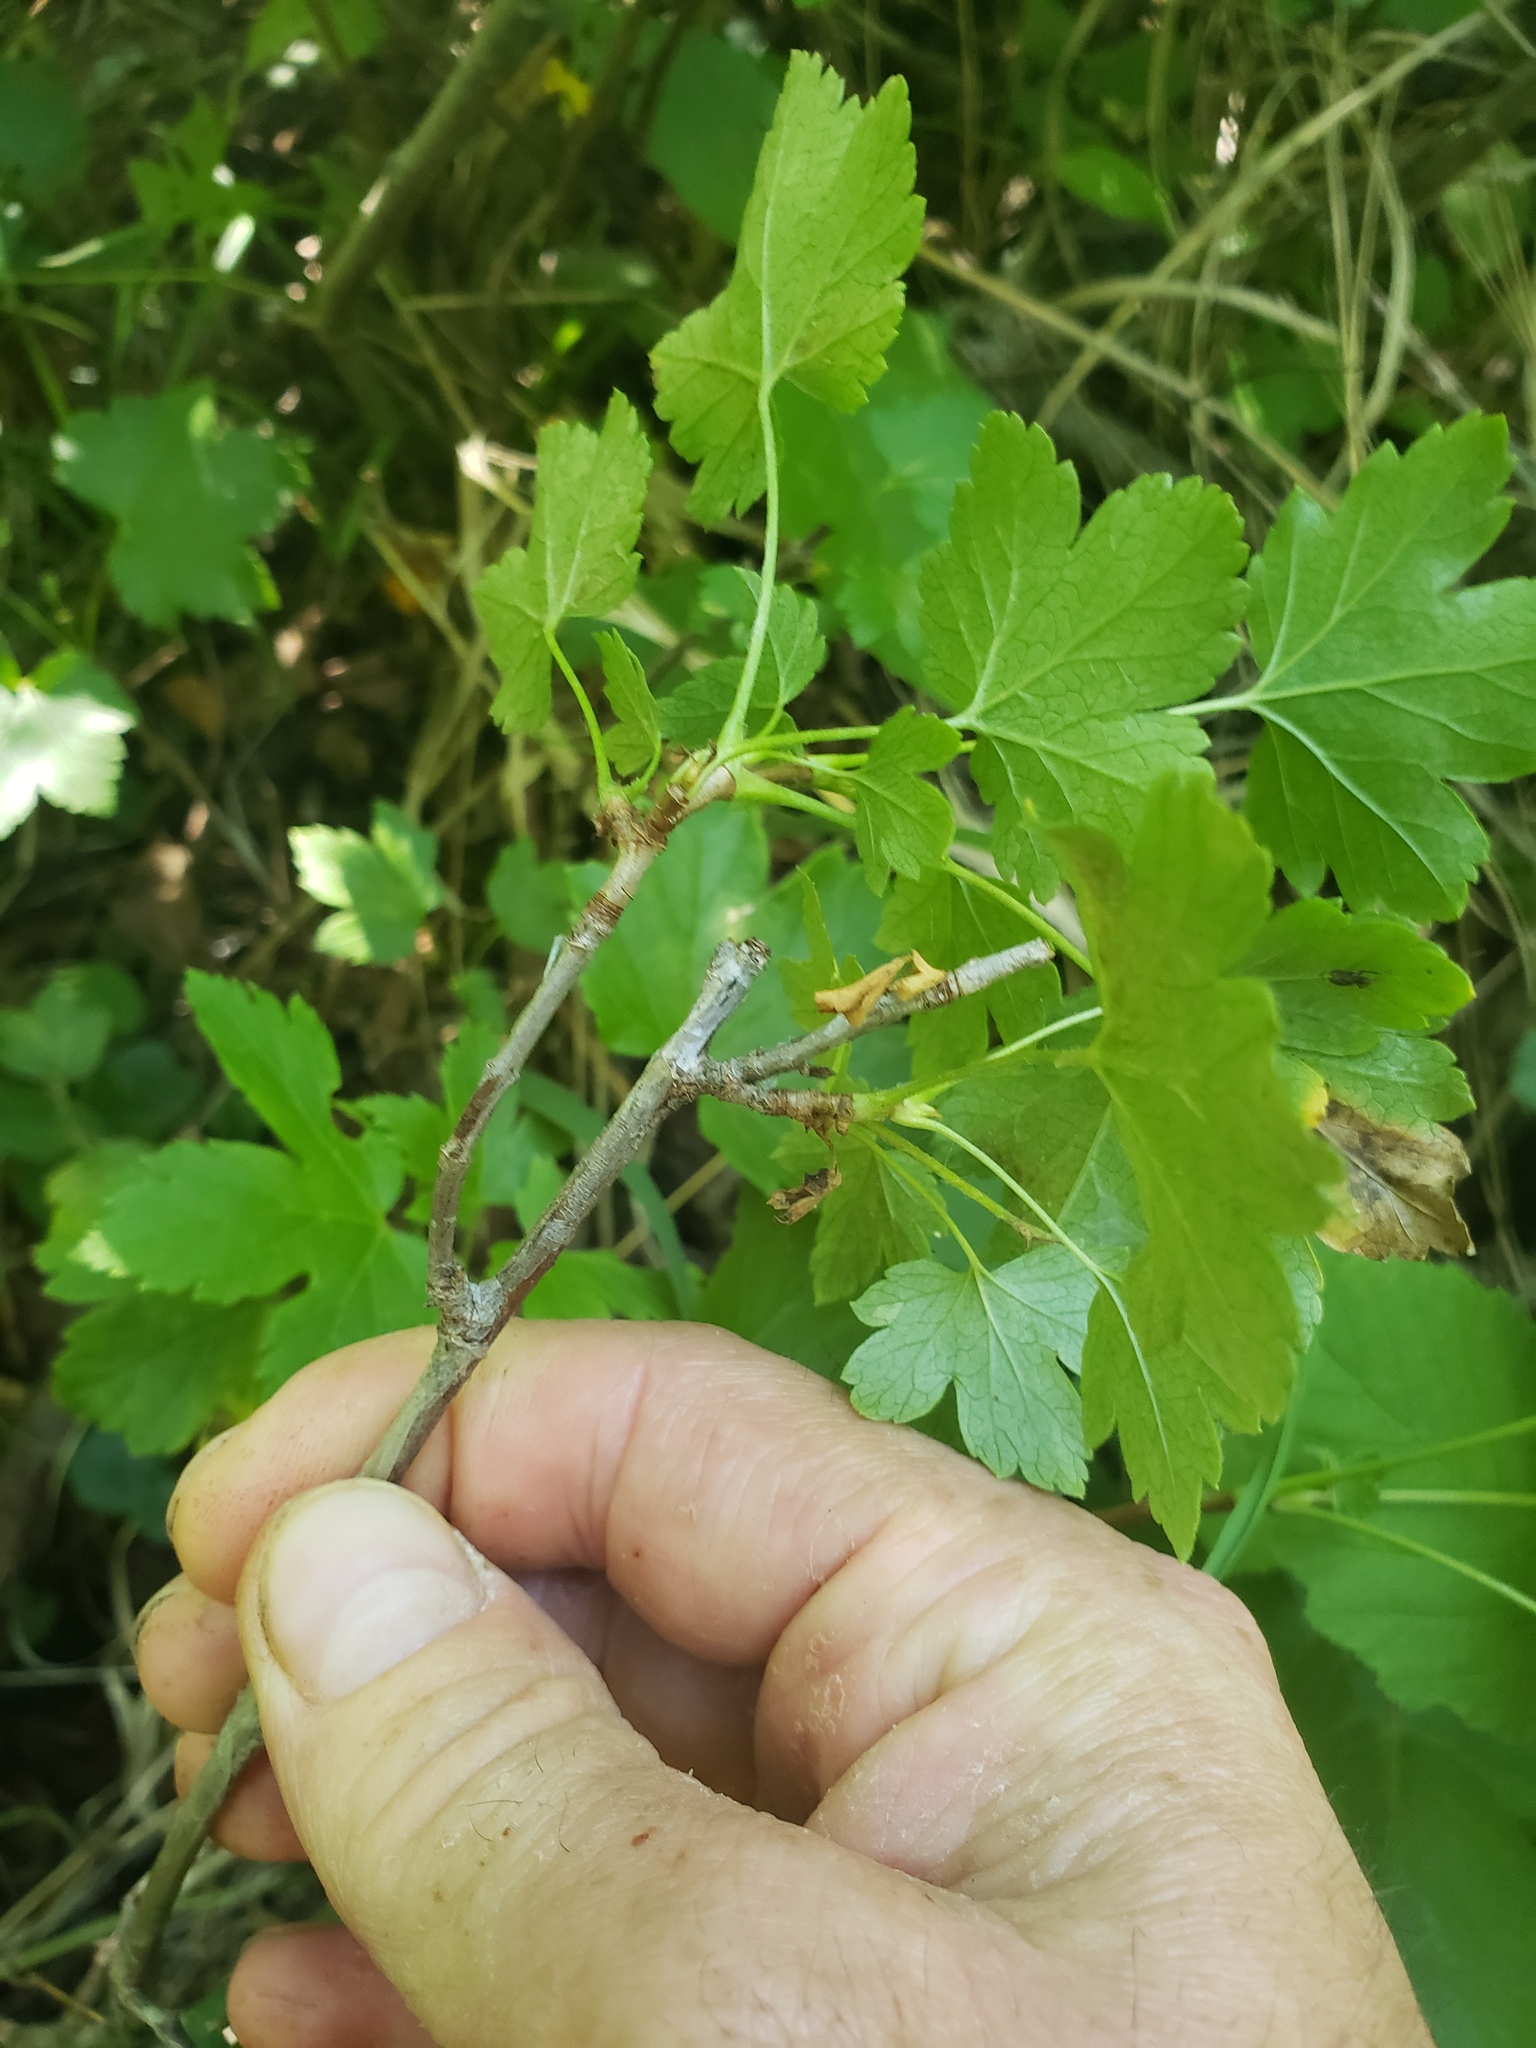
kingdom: Plantae
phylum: Tracheophyta
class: Magnoliopsida
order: Saxifragales
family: Grossulariaceae
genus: Ribes
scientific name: Ribes glandulosum
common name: Skunk currant
